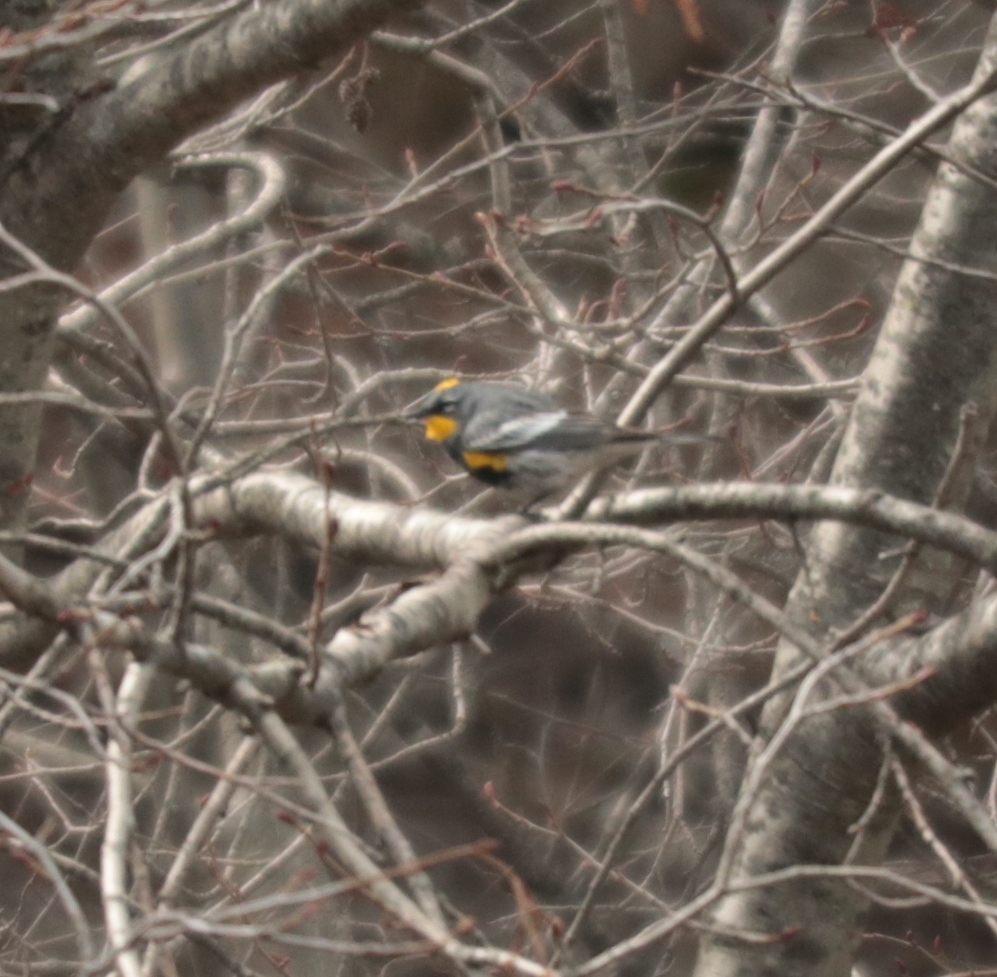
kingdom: Animalia
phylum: Chordata
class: Aves
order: Passeriformes
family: Parulidae
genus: Setophaga
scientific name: Setophaga auduboni
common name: Audubon's warbler
